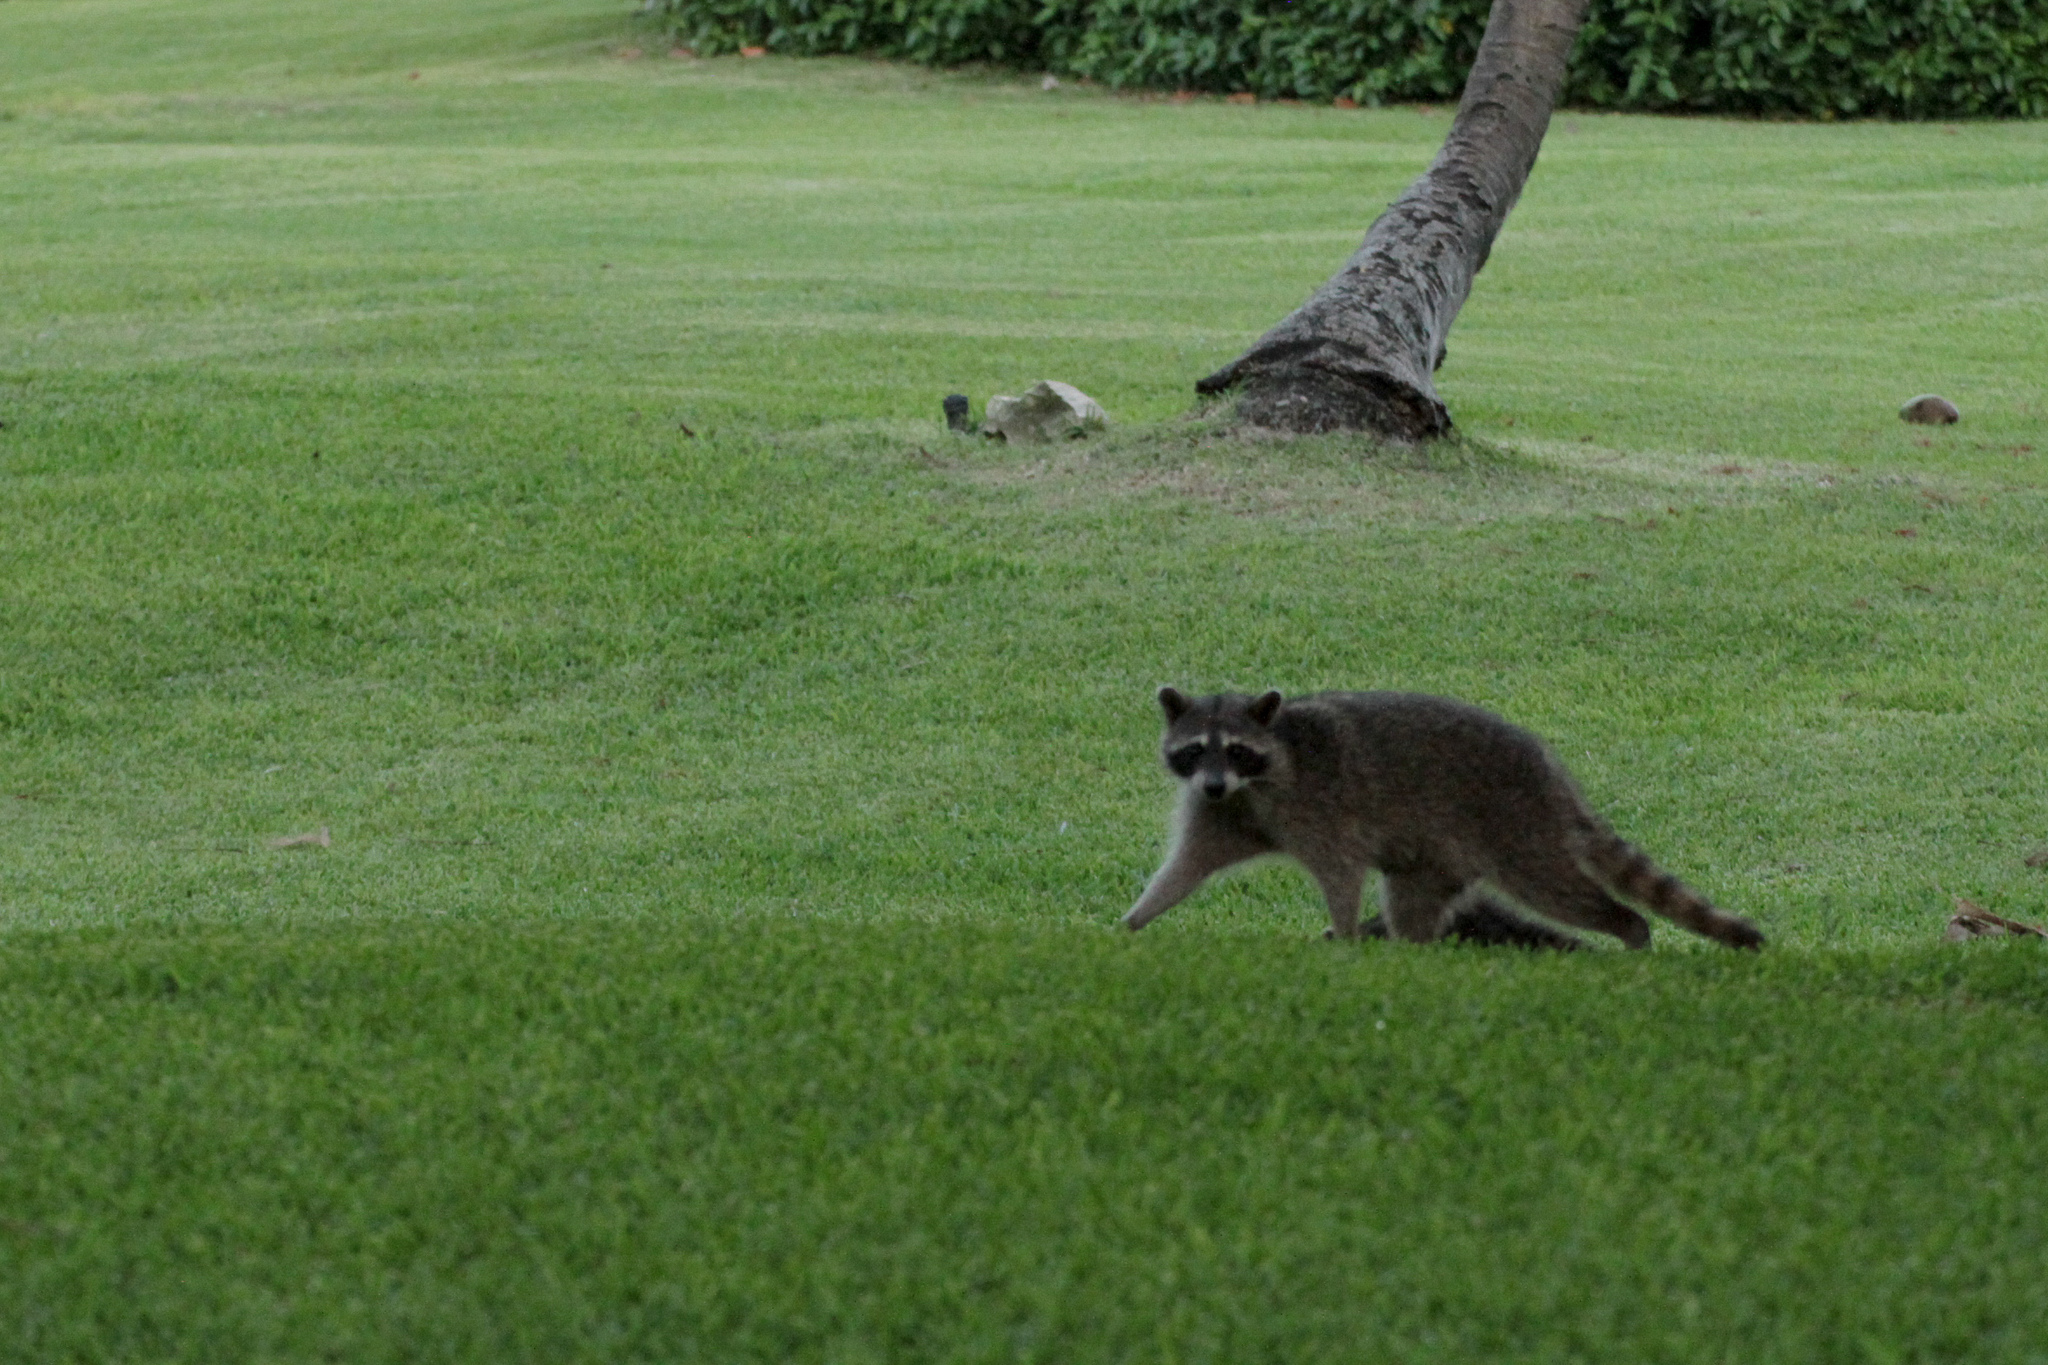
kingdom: Animalia
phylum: Chordata
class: Mammalia
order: Carnivora
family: Procyonidae
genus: Procyon
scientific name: Procyon lotor
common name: Raccoon
